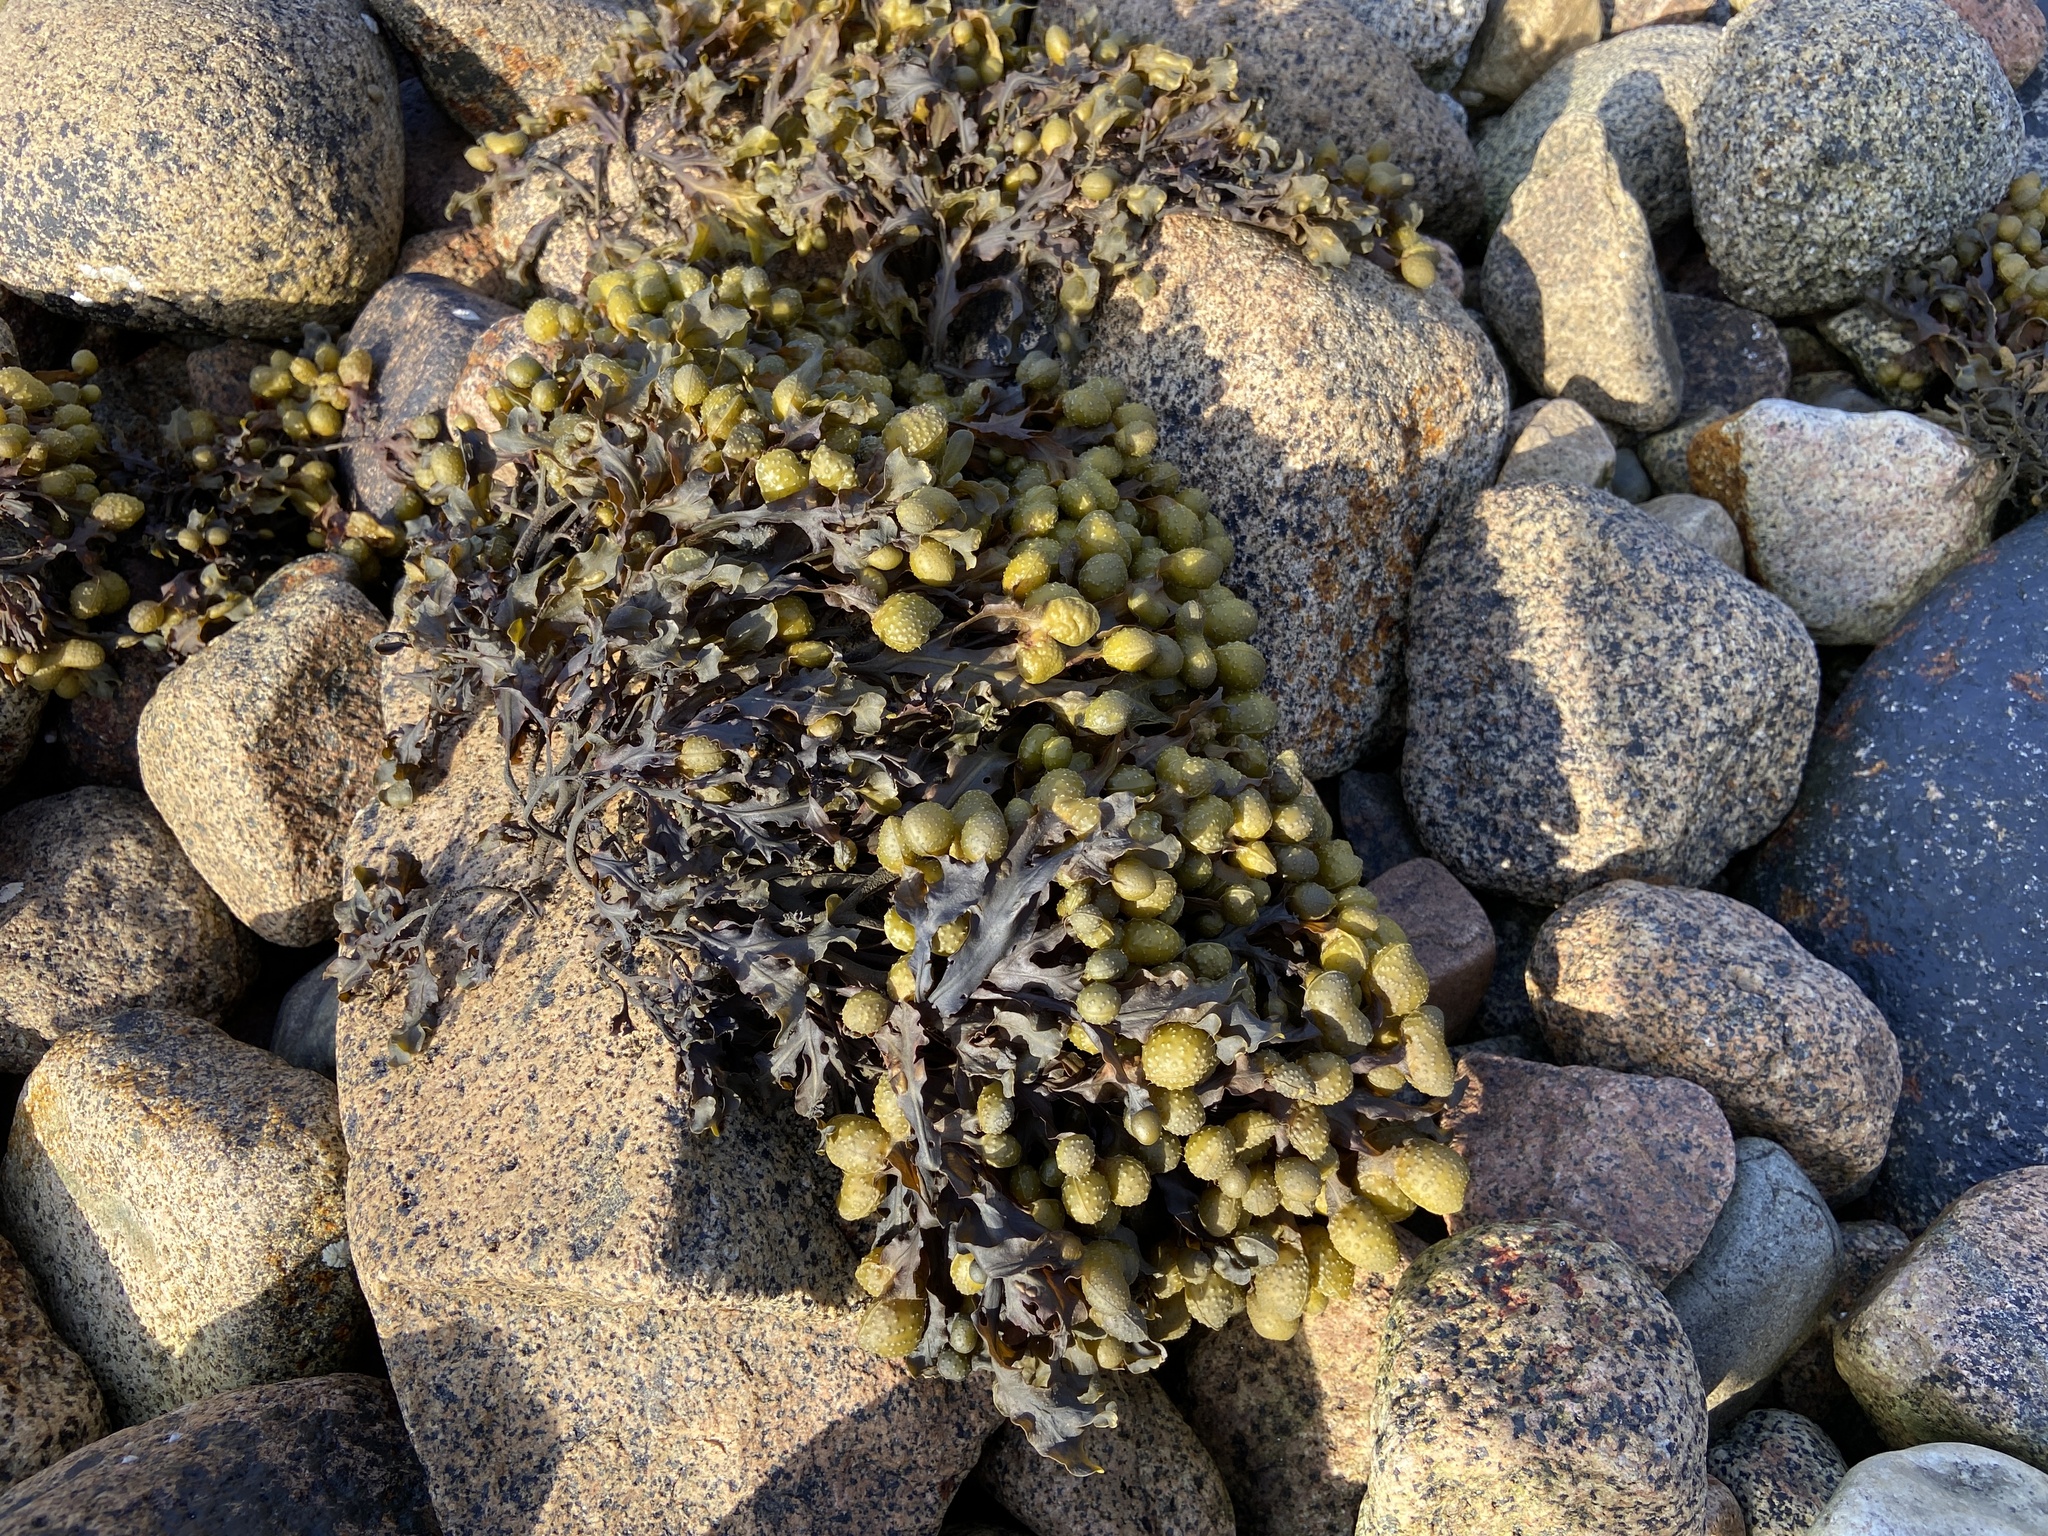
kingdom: Chromista
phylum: Ochrophyta
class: Phaeophyceae
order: Fucales
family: Fucaceae
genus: Fucus
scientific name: Fucus spiralis
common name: Spiral wrack
